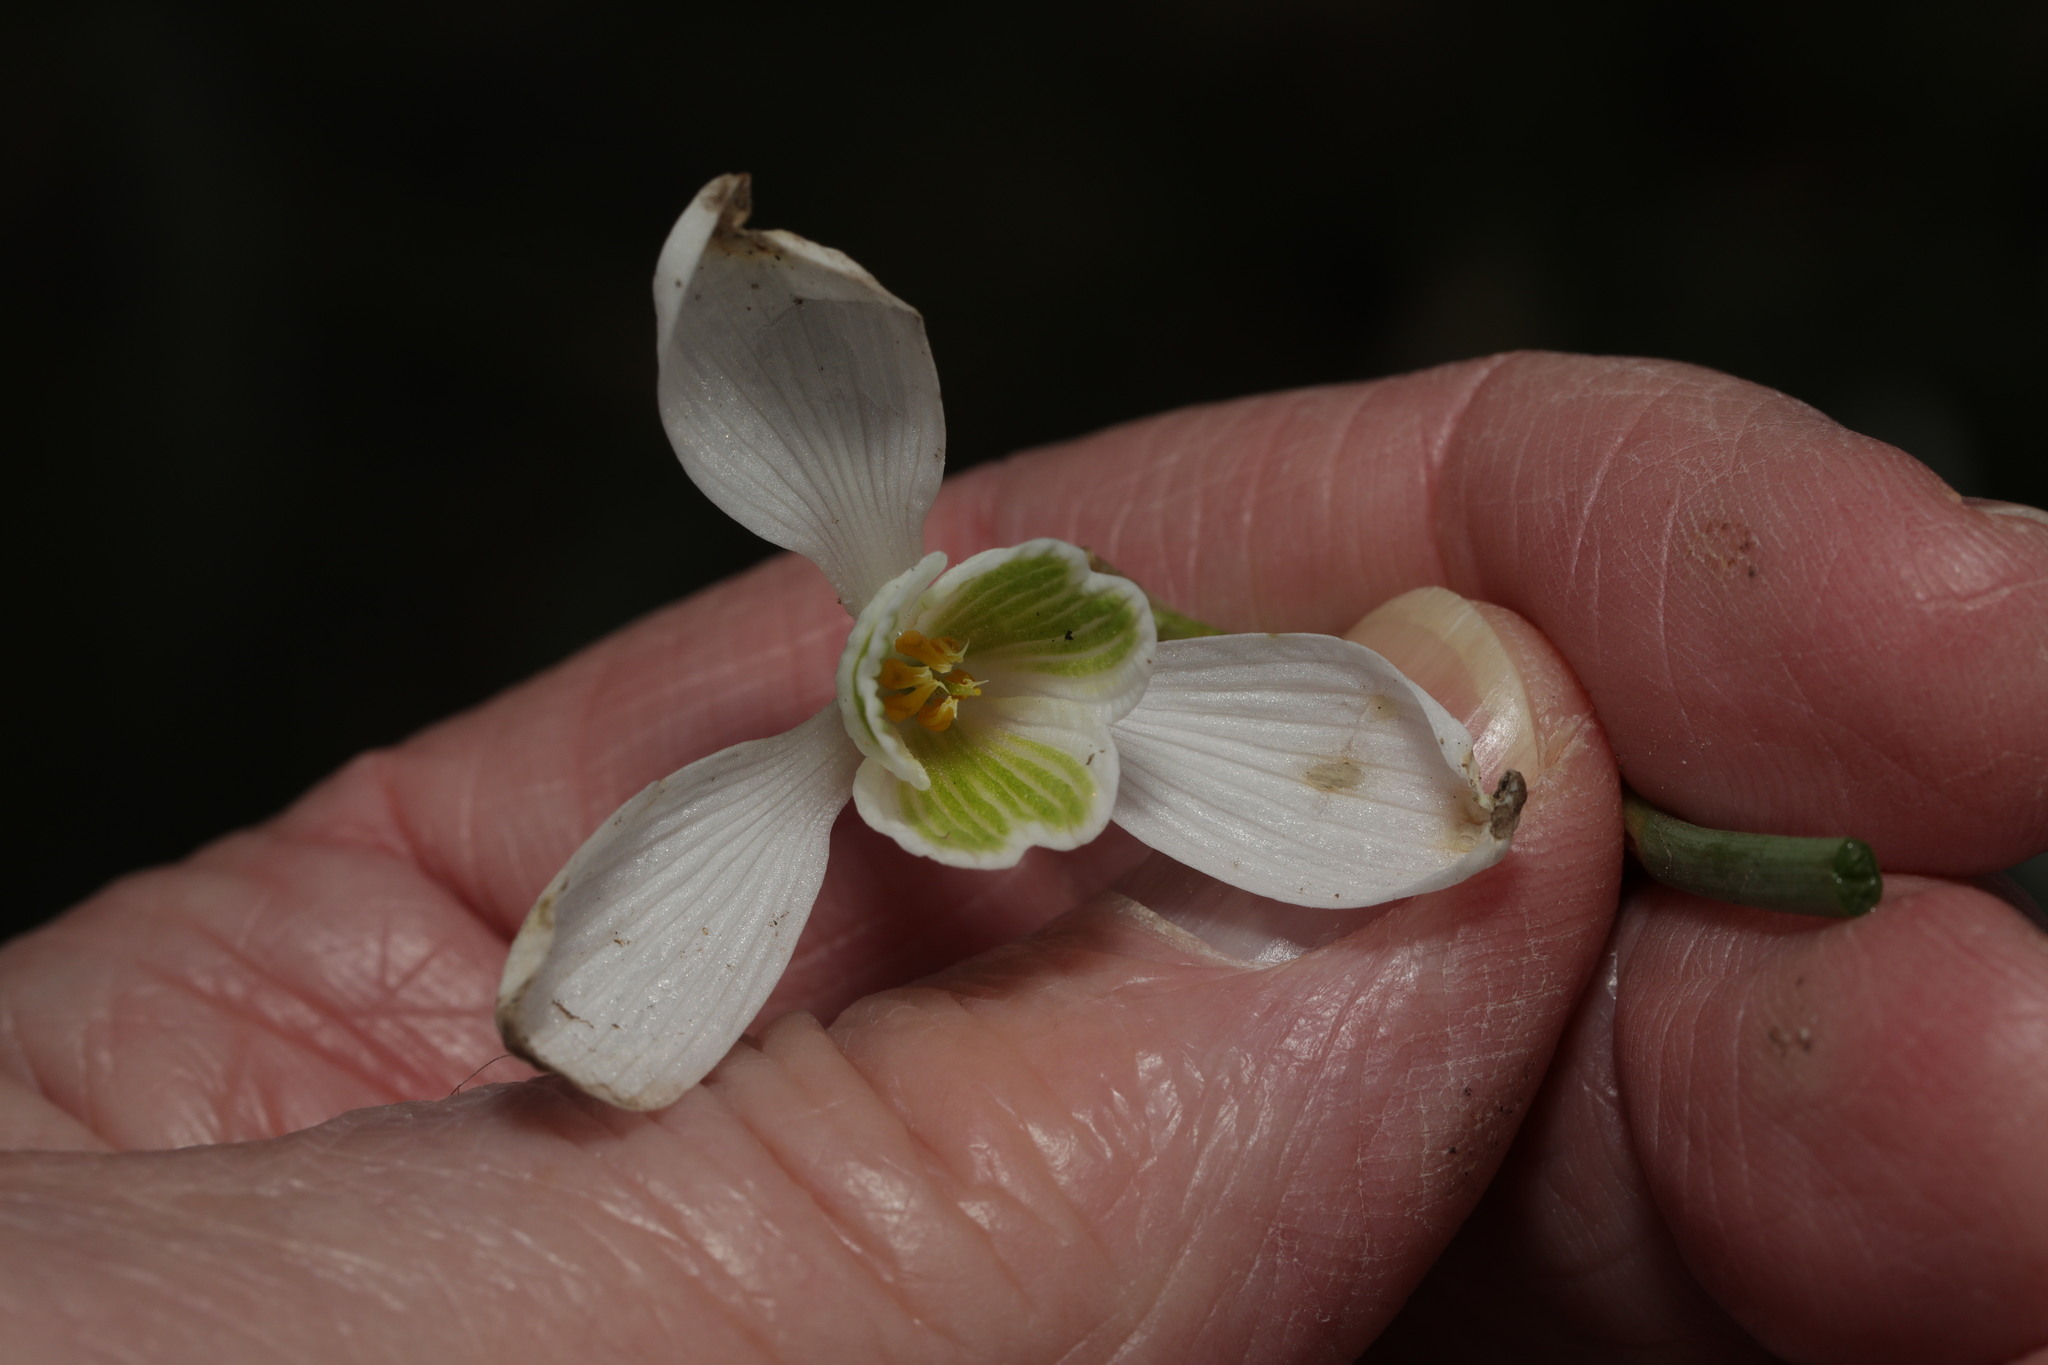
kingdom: Plantae
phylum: Tracheophyta
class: Liliopsida
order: Asparagales
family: Amaryllidaceae
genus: Galanthus
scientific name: Galanthus nivalis
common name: Snowdrop
